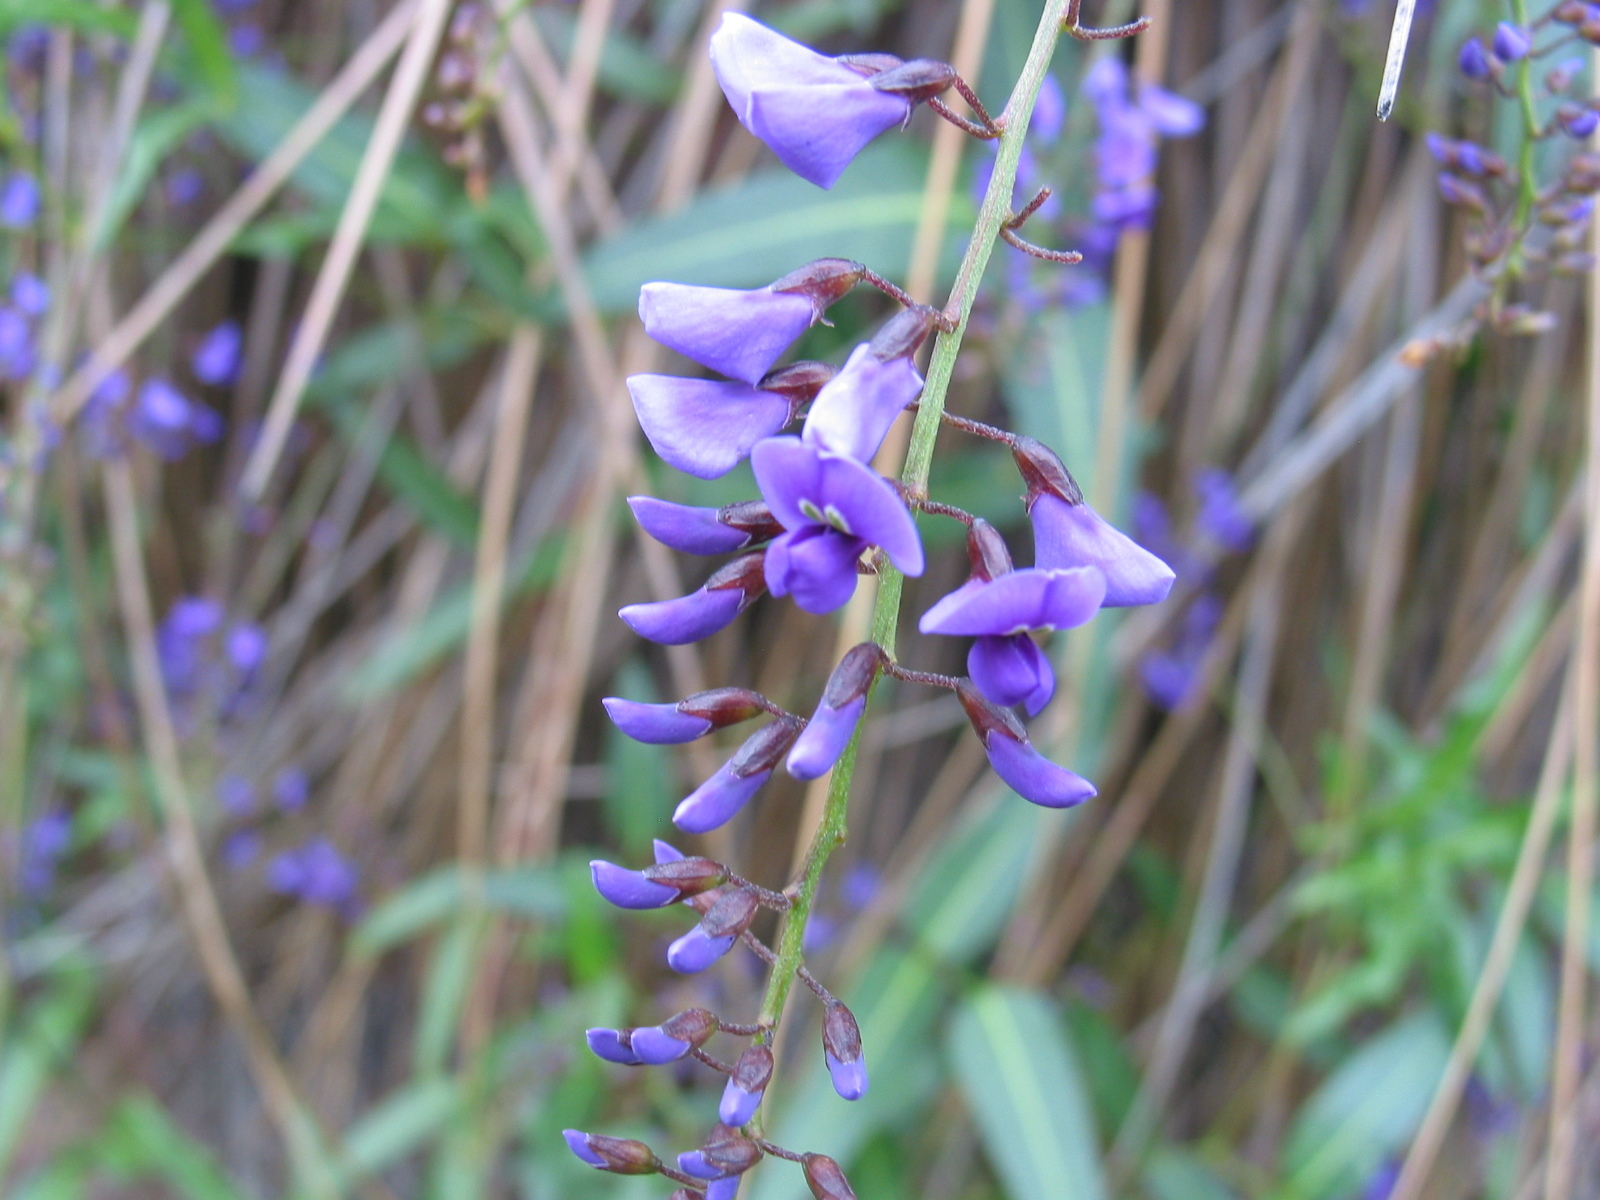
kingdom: Plantae
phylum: Tracheophyta
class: Magnoliopsida
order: Fabales
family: Fabaceae
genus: Hardenbergia
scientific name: Hardenbergia comptoniana
